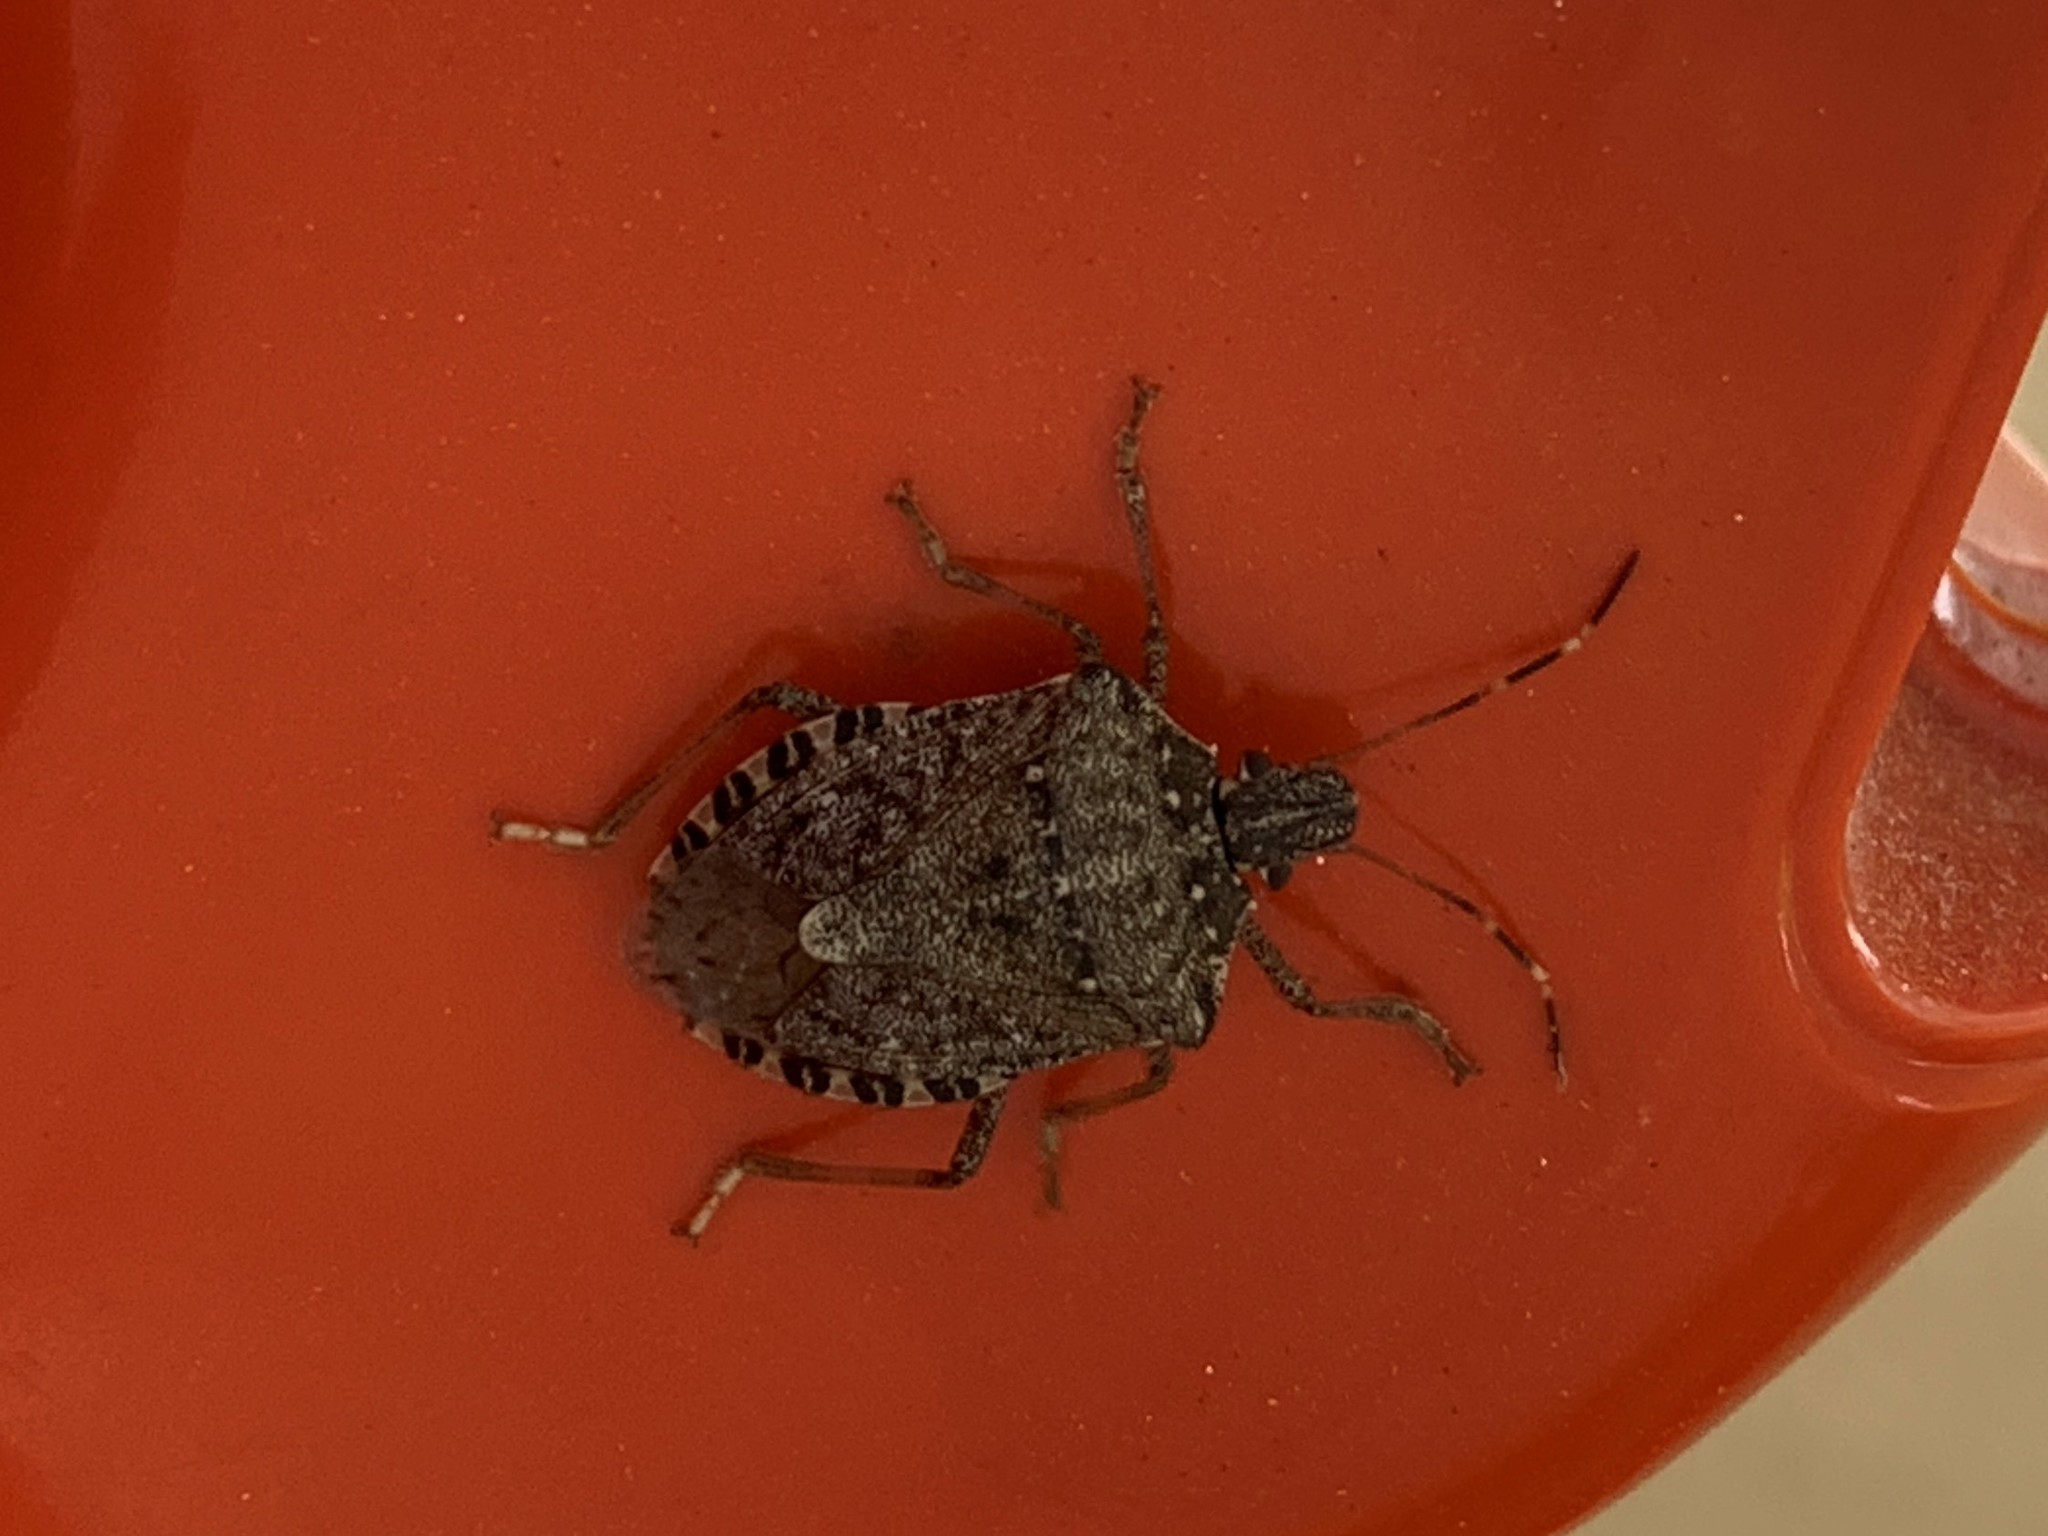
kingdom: Animalia
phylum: Arthropoda
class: Insecta
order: Hemiptera
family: Pentatomidae
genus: Halyomorpha
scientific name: Halyomorpha halys
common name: Brown marmorated stink bug
